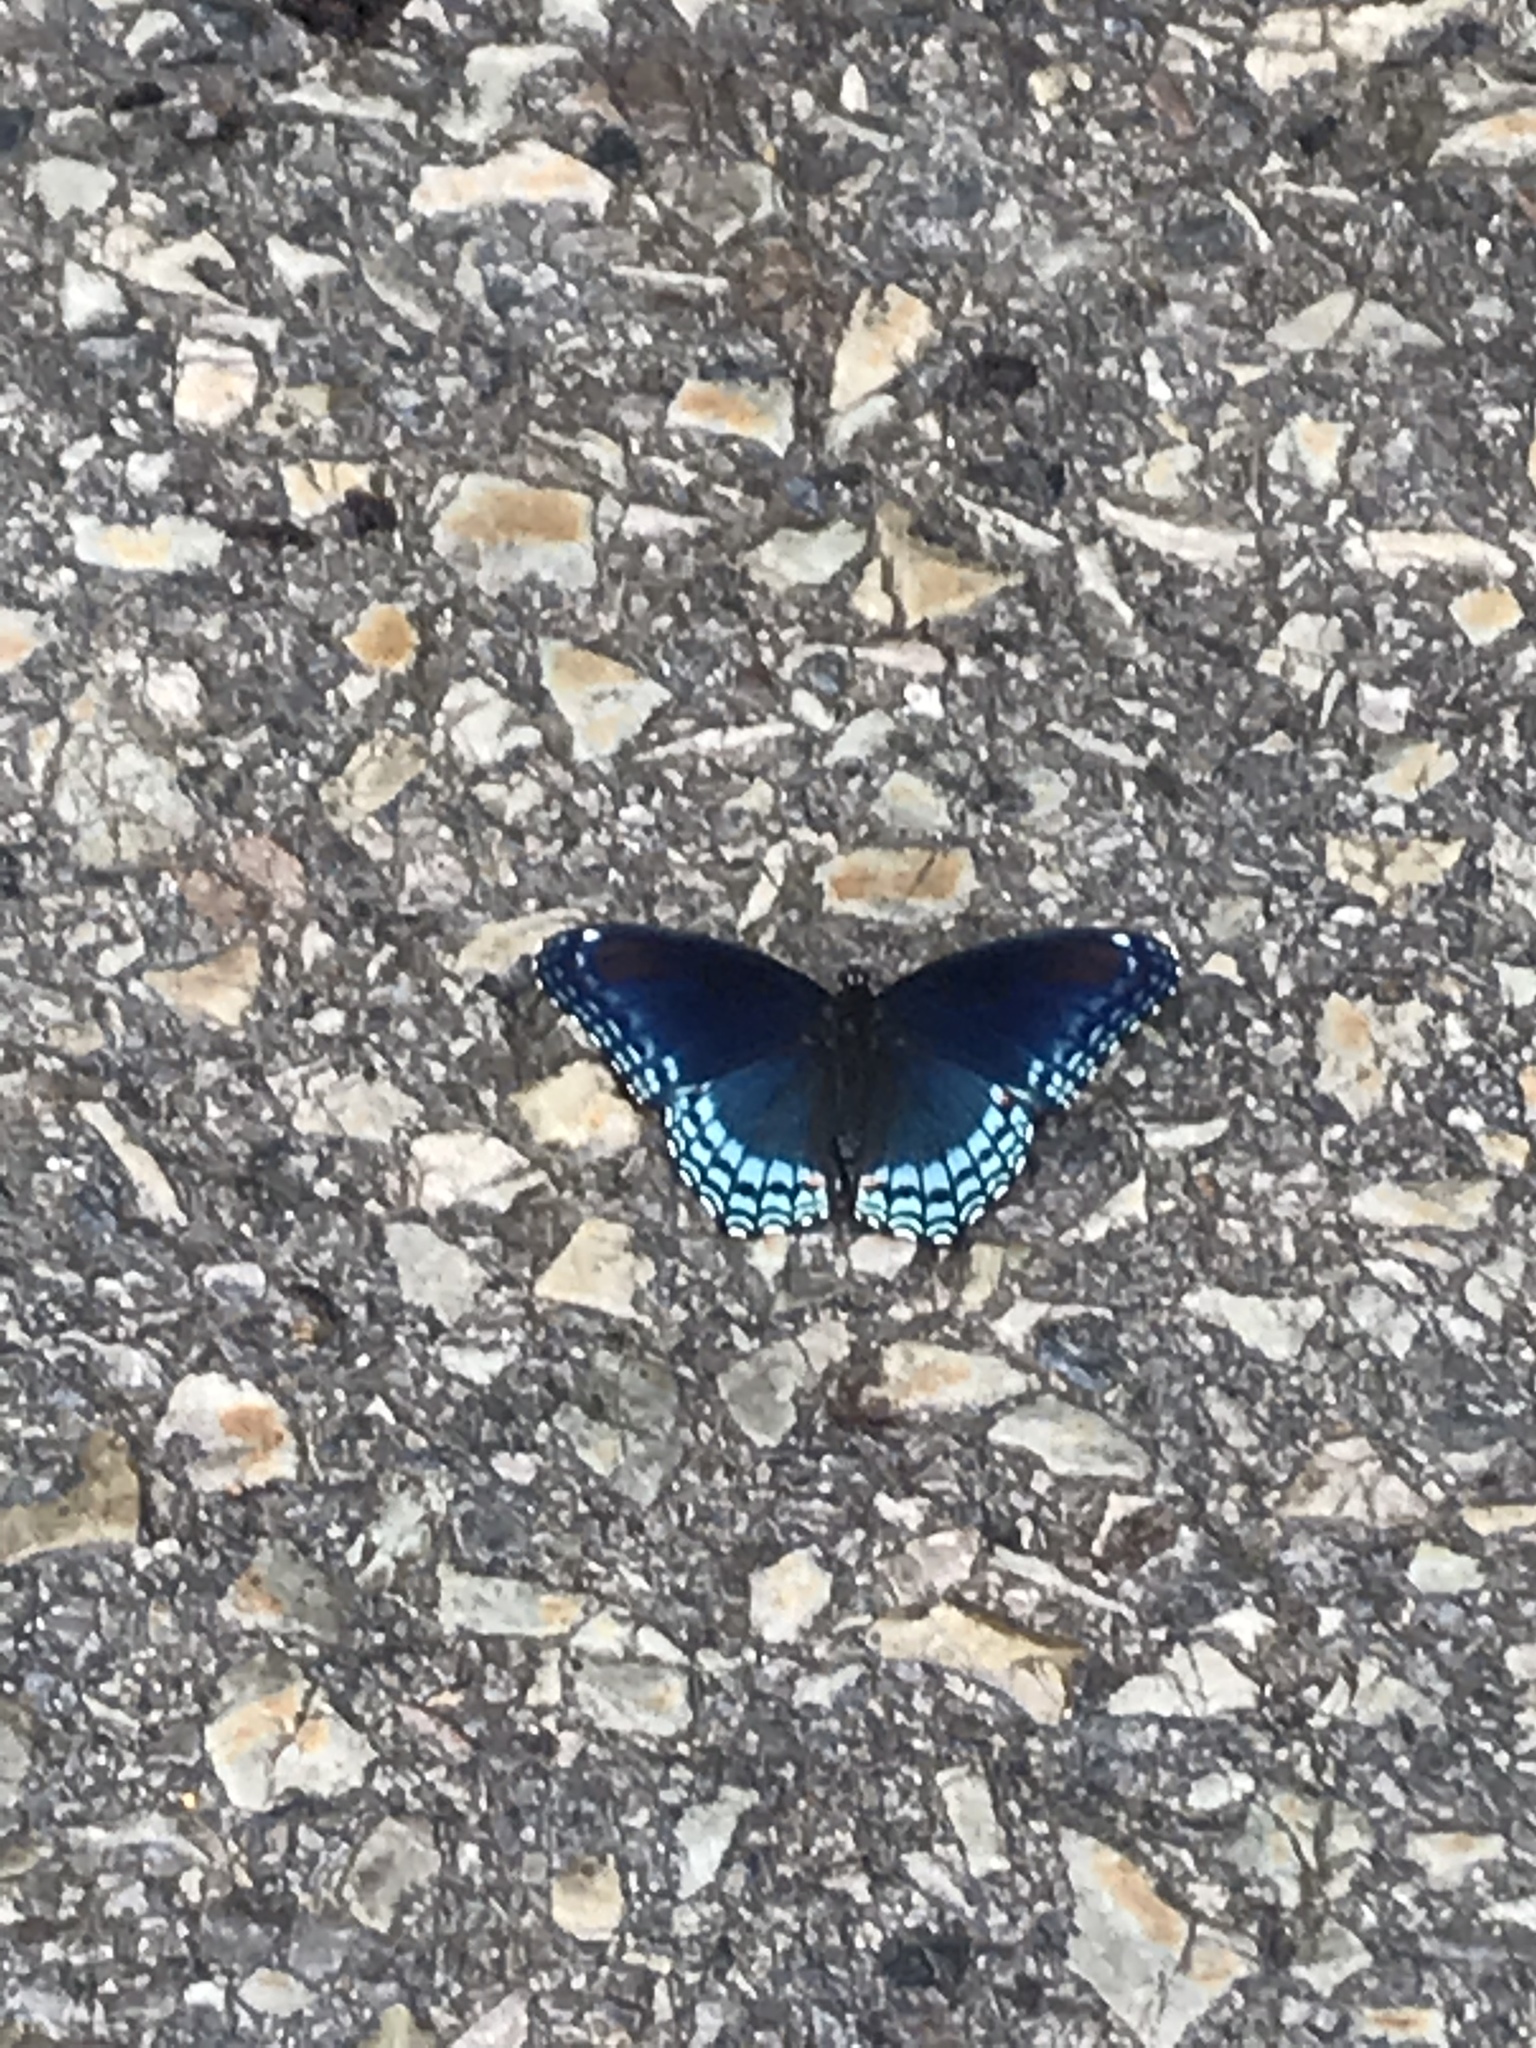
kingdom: Animalia
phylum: Arthropoda
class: Insecta
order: Lepidoptera
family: Nymphalidae
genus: Limenitis
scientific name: Limenitis astyanax
